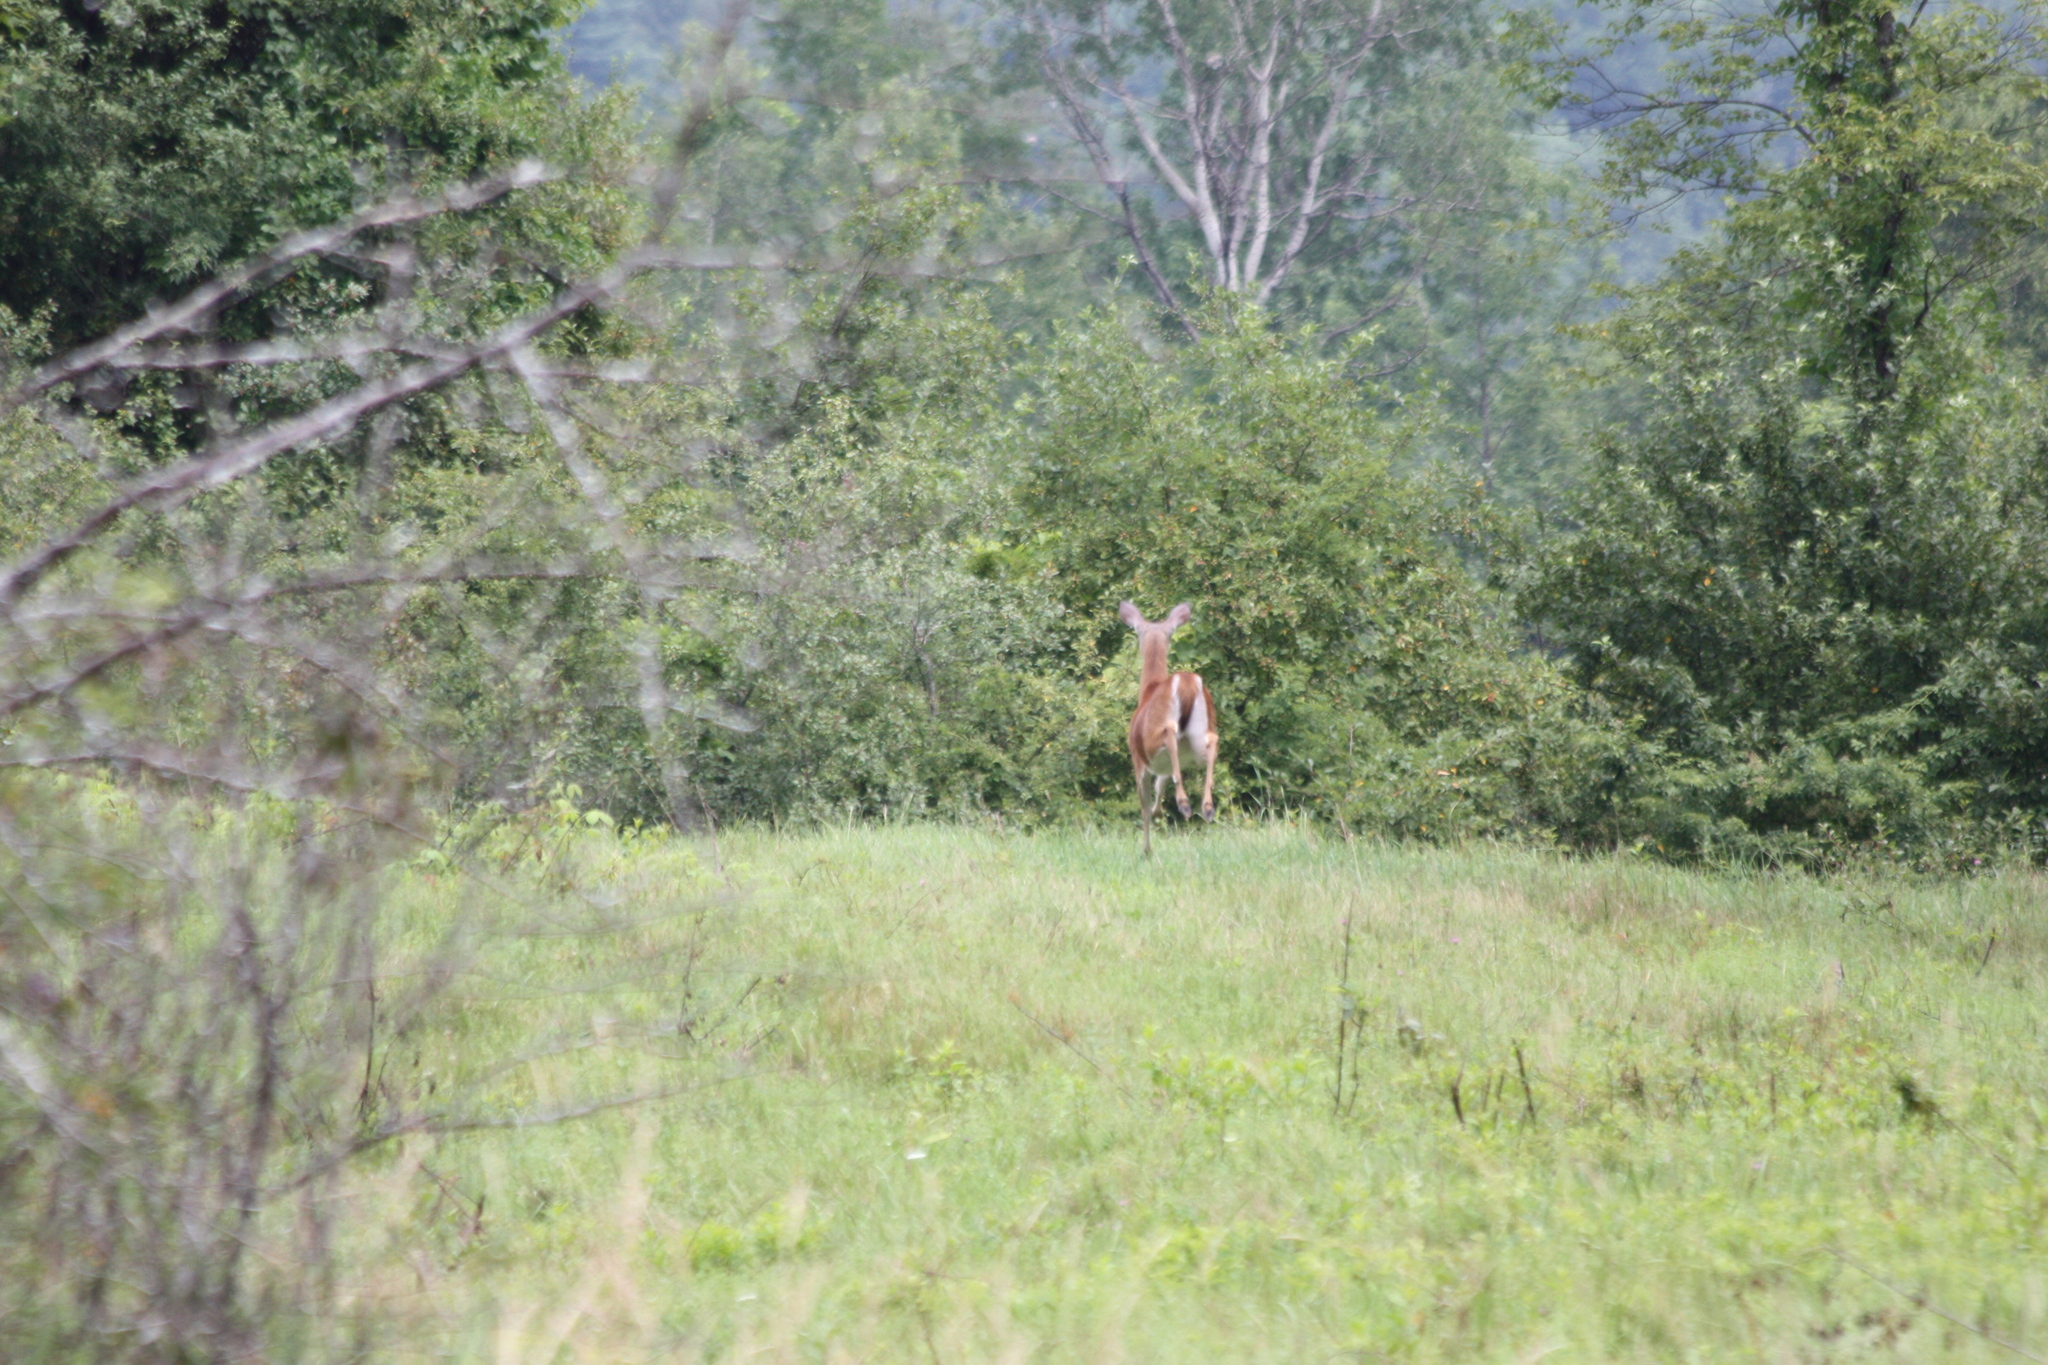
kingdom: Animalia
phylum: Chordata
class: Mammalia
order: Artiodactyla
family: Cervidae
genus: Odocoileus
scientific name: Odocoileus virginianus
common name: White-tailed deer
